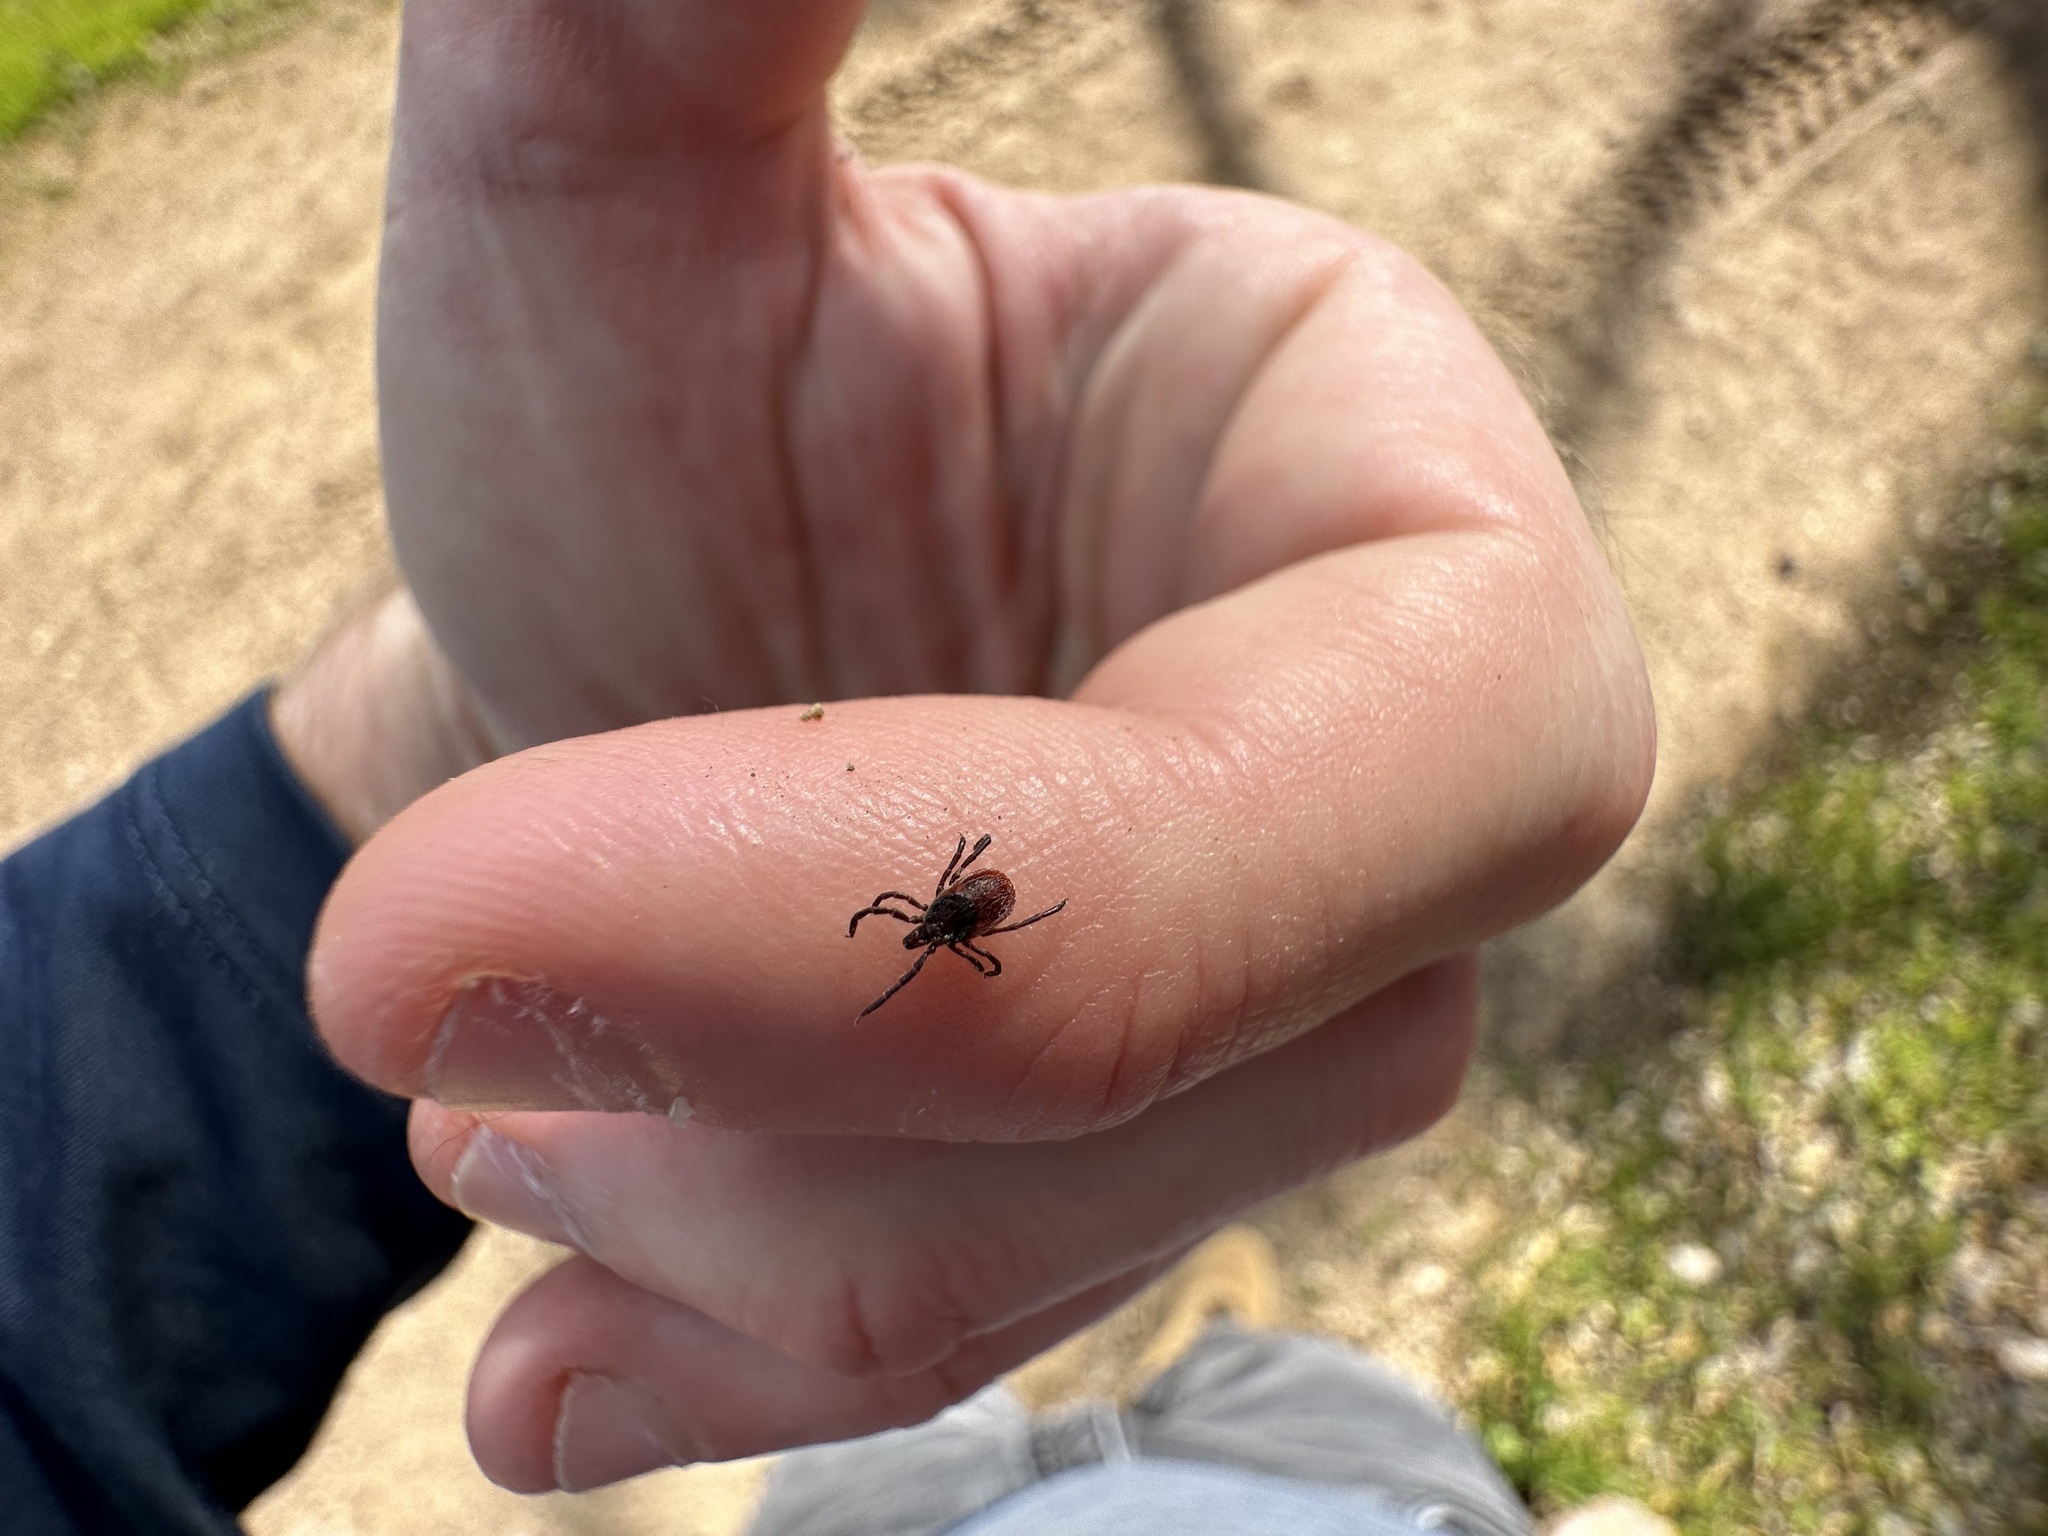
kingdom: Animalia
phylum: Arthropoda
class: Arachnida
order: Ixodida
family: Ixodidae
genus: Ixodes
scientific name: Ixodes pacificus
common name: California black-legged tick
